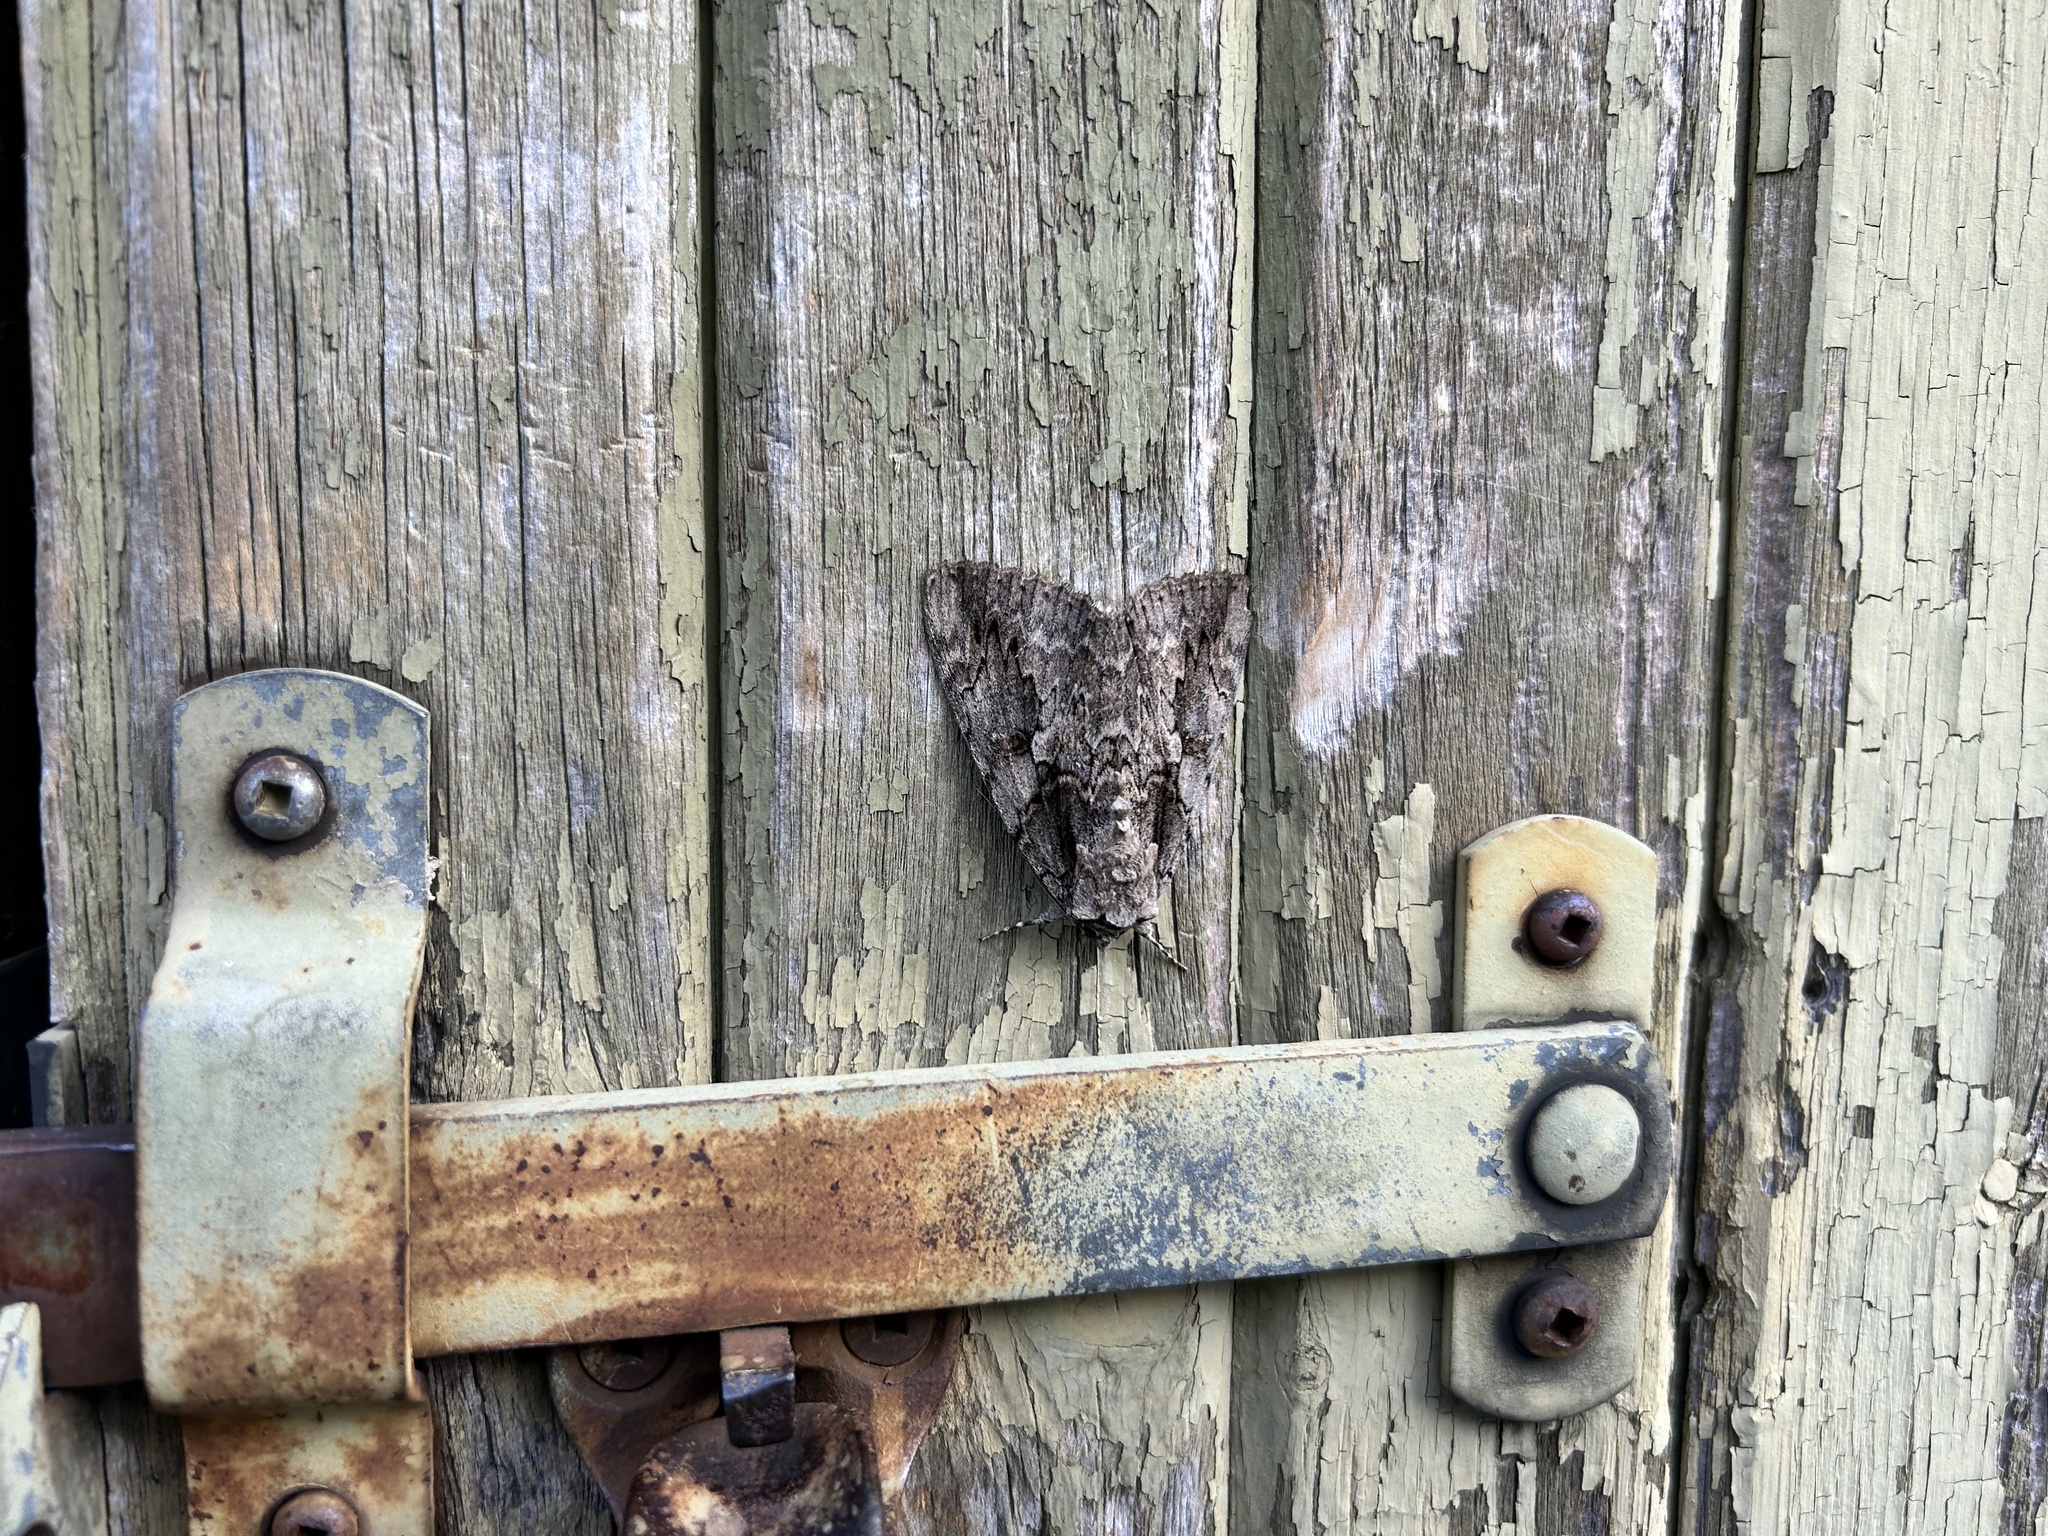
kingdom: Animalia
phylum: Arthropoda
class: Insecta
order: Lepidoptera
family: Erebidae
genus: Catocala
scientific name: Catocala amatrix
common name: Sweetheart underwing
